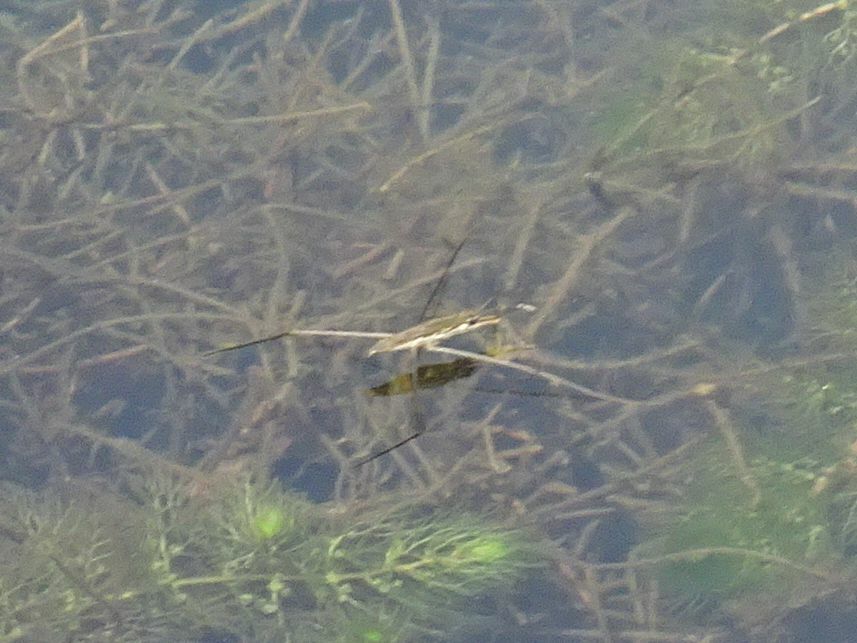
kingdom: Animalia
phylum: Arthropoda
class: Insecta
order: Hemiptera
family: Gerridae
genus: Aquarius
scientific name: Aquarius paludum
